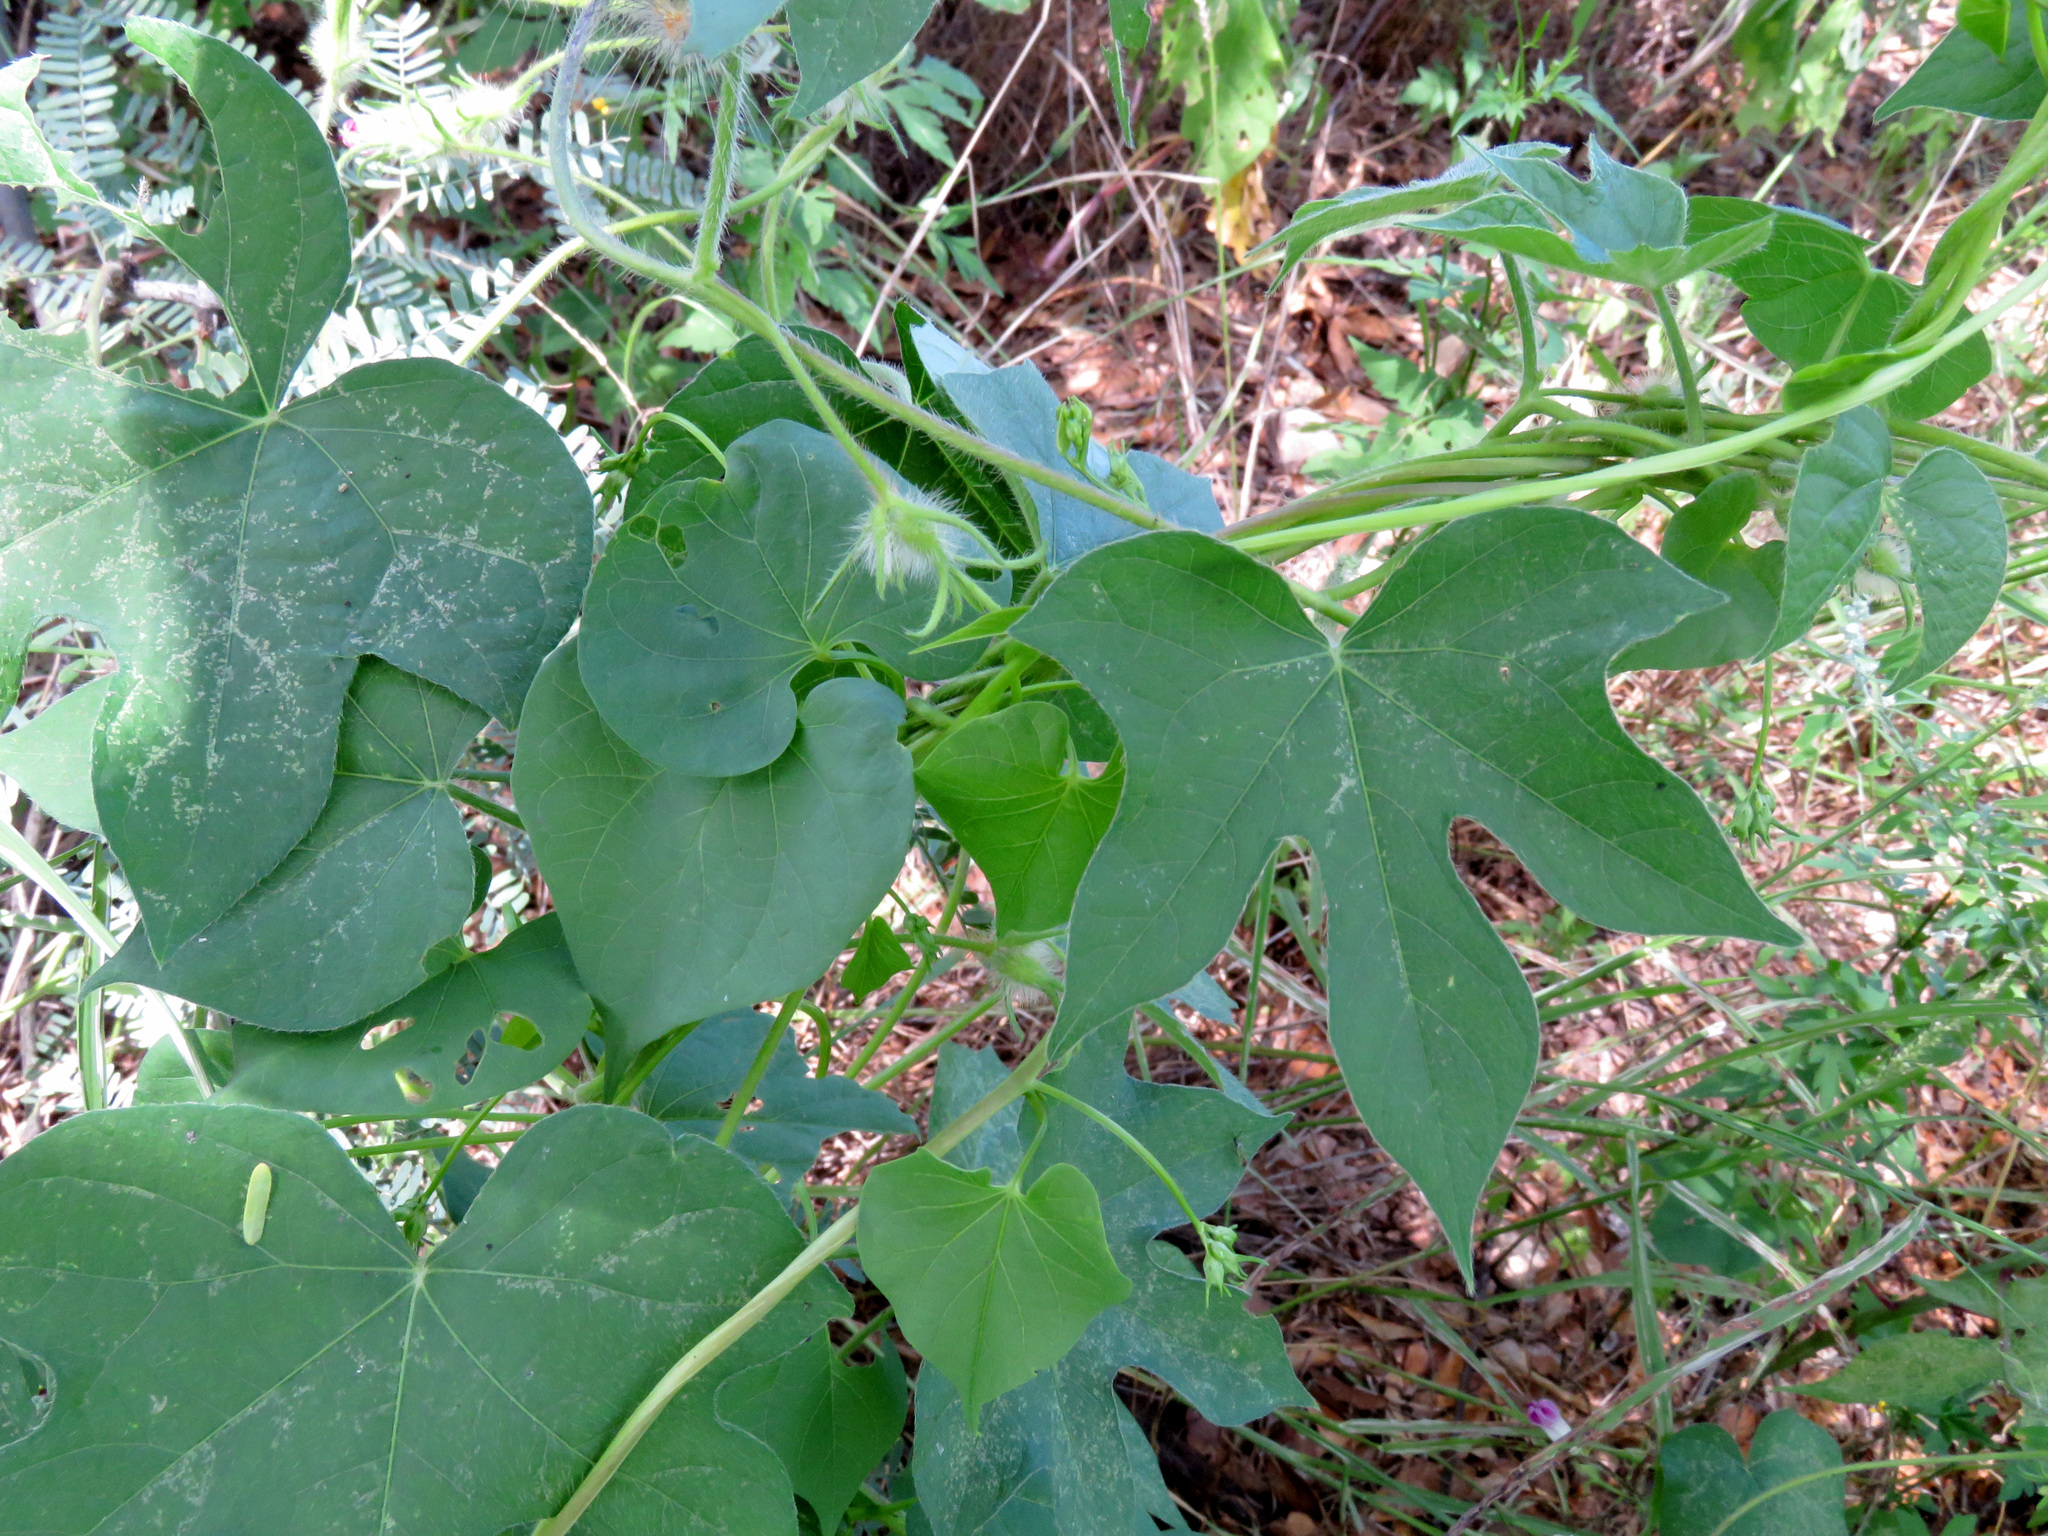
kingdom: Plantae
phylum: Tracheophyta
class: Magnoliopsida
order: Solanales
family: Convolvulaceae
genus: Ipomoea
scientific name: Ipomoea hederacea
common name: Ivy-leaved morning-glory
